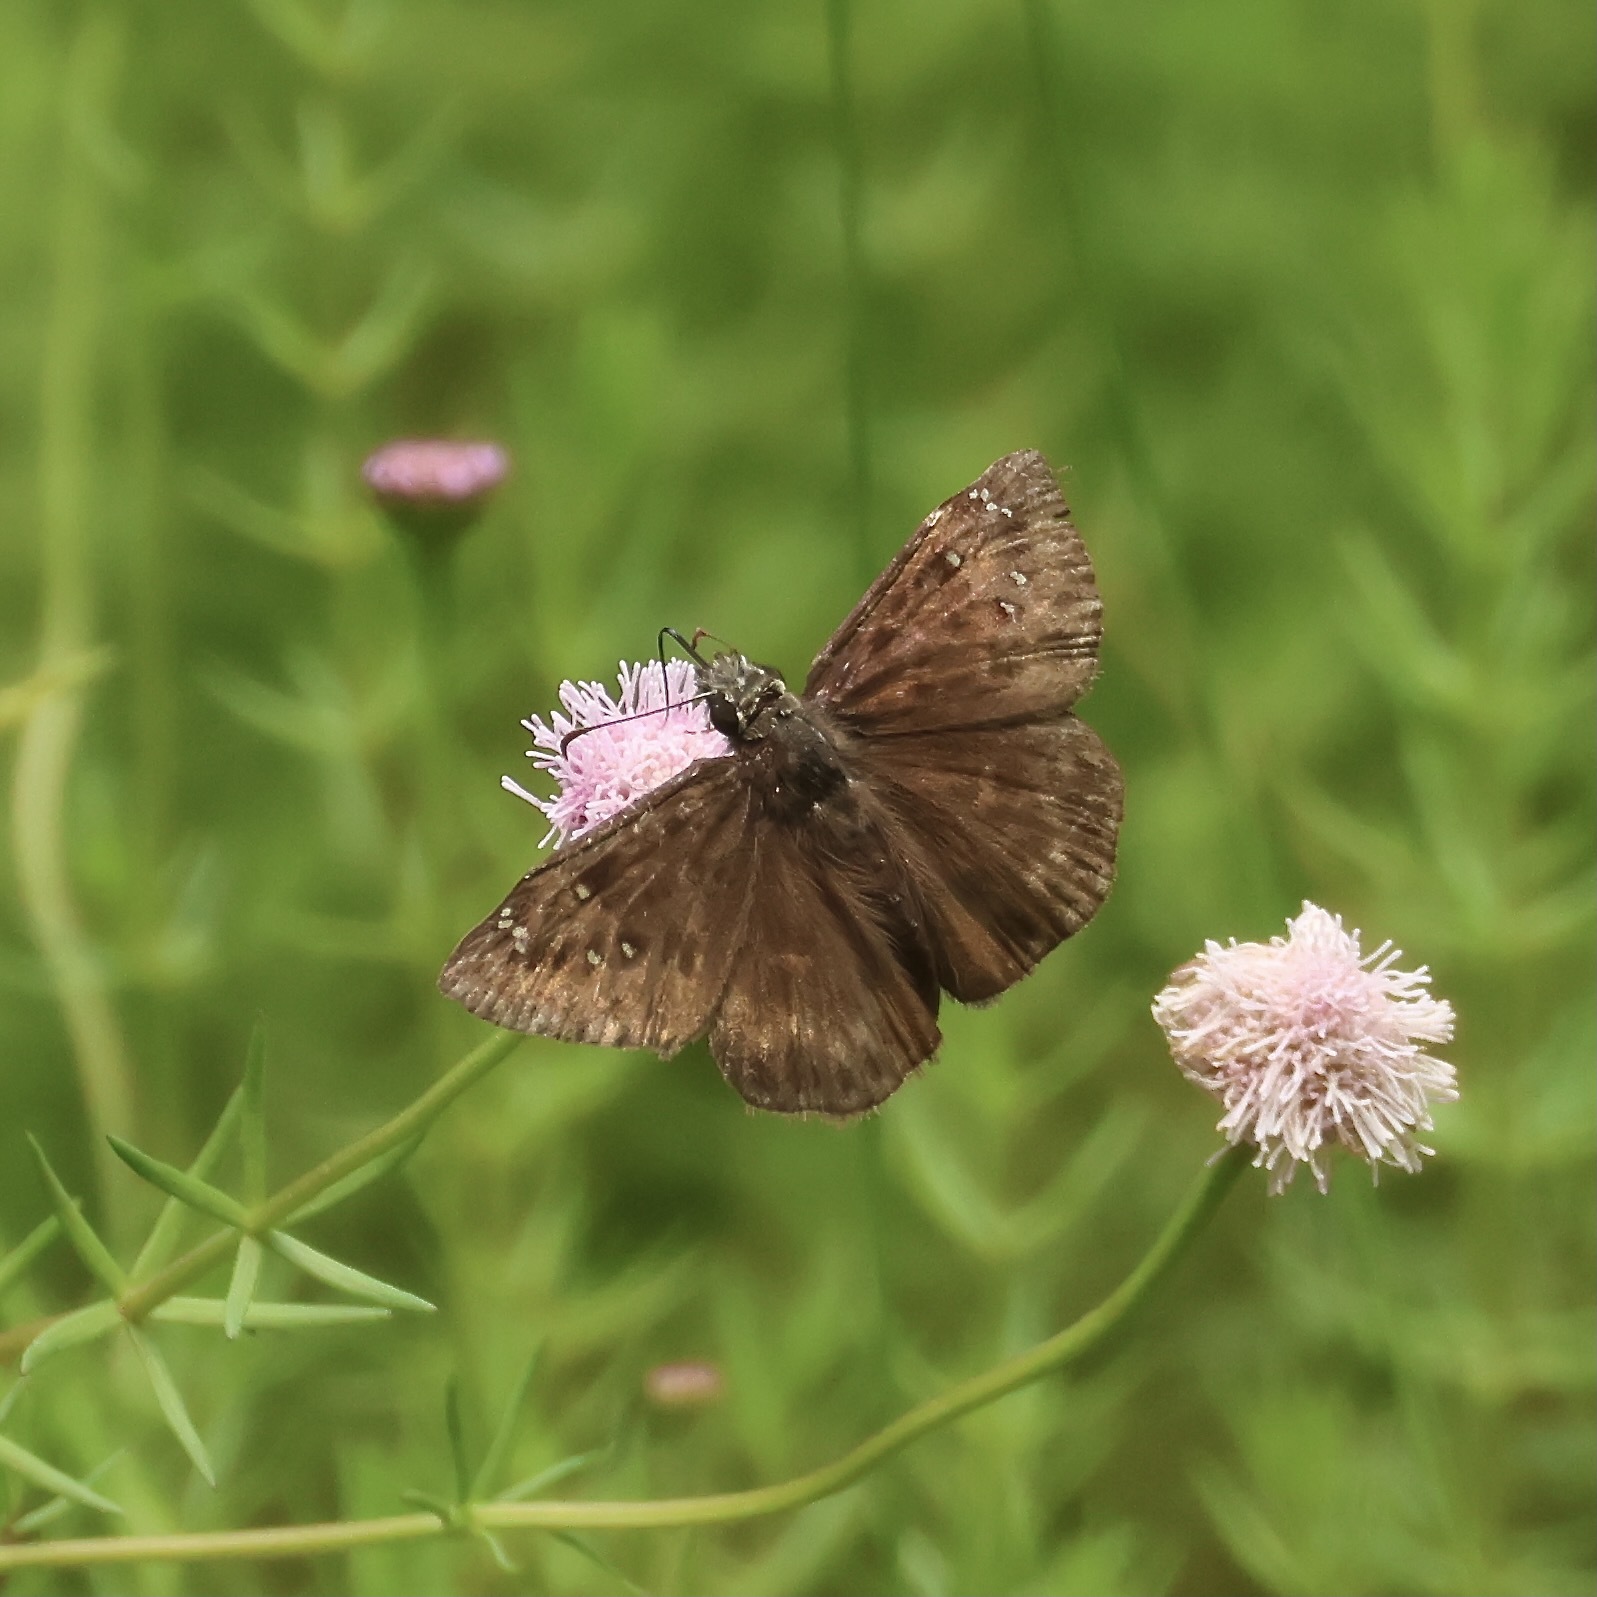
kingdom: Animalia
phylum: Arthropoda
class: Insecta
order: Lepidoptera
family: Hesperiidae
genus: Erynnis
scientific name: Erynnis horatius
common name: Horace's duskywing
